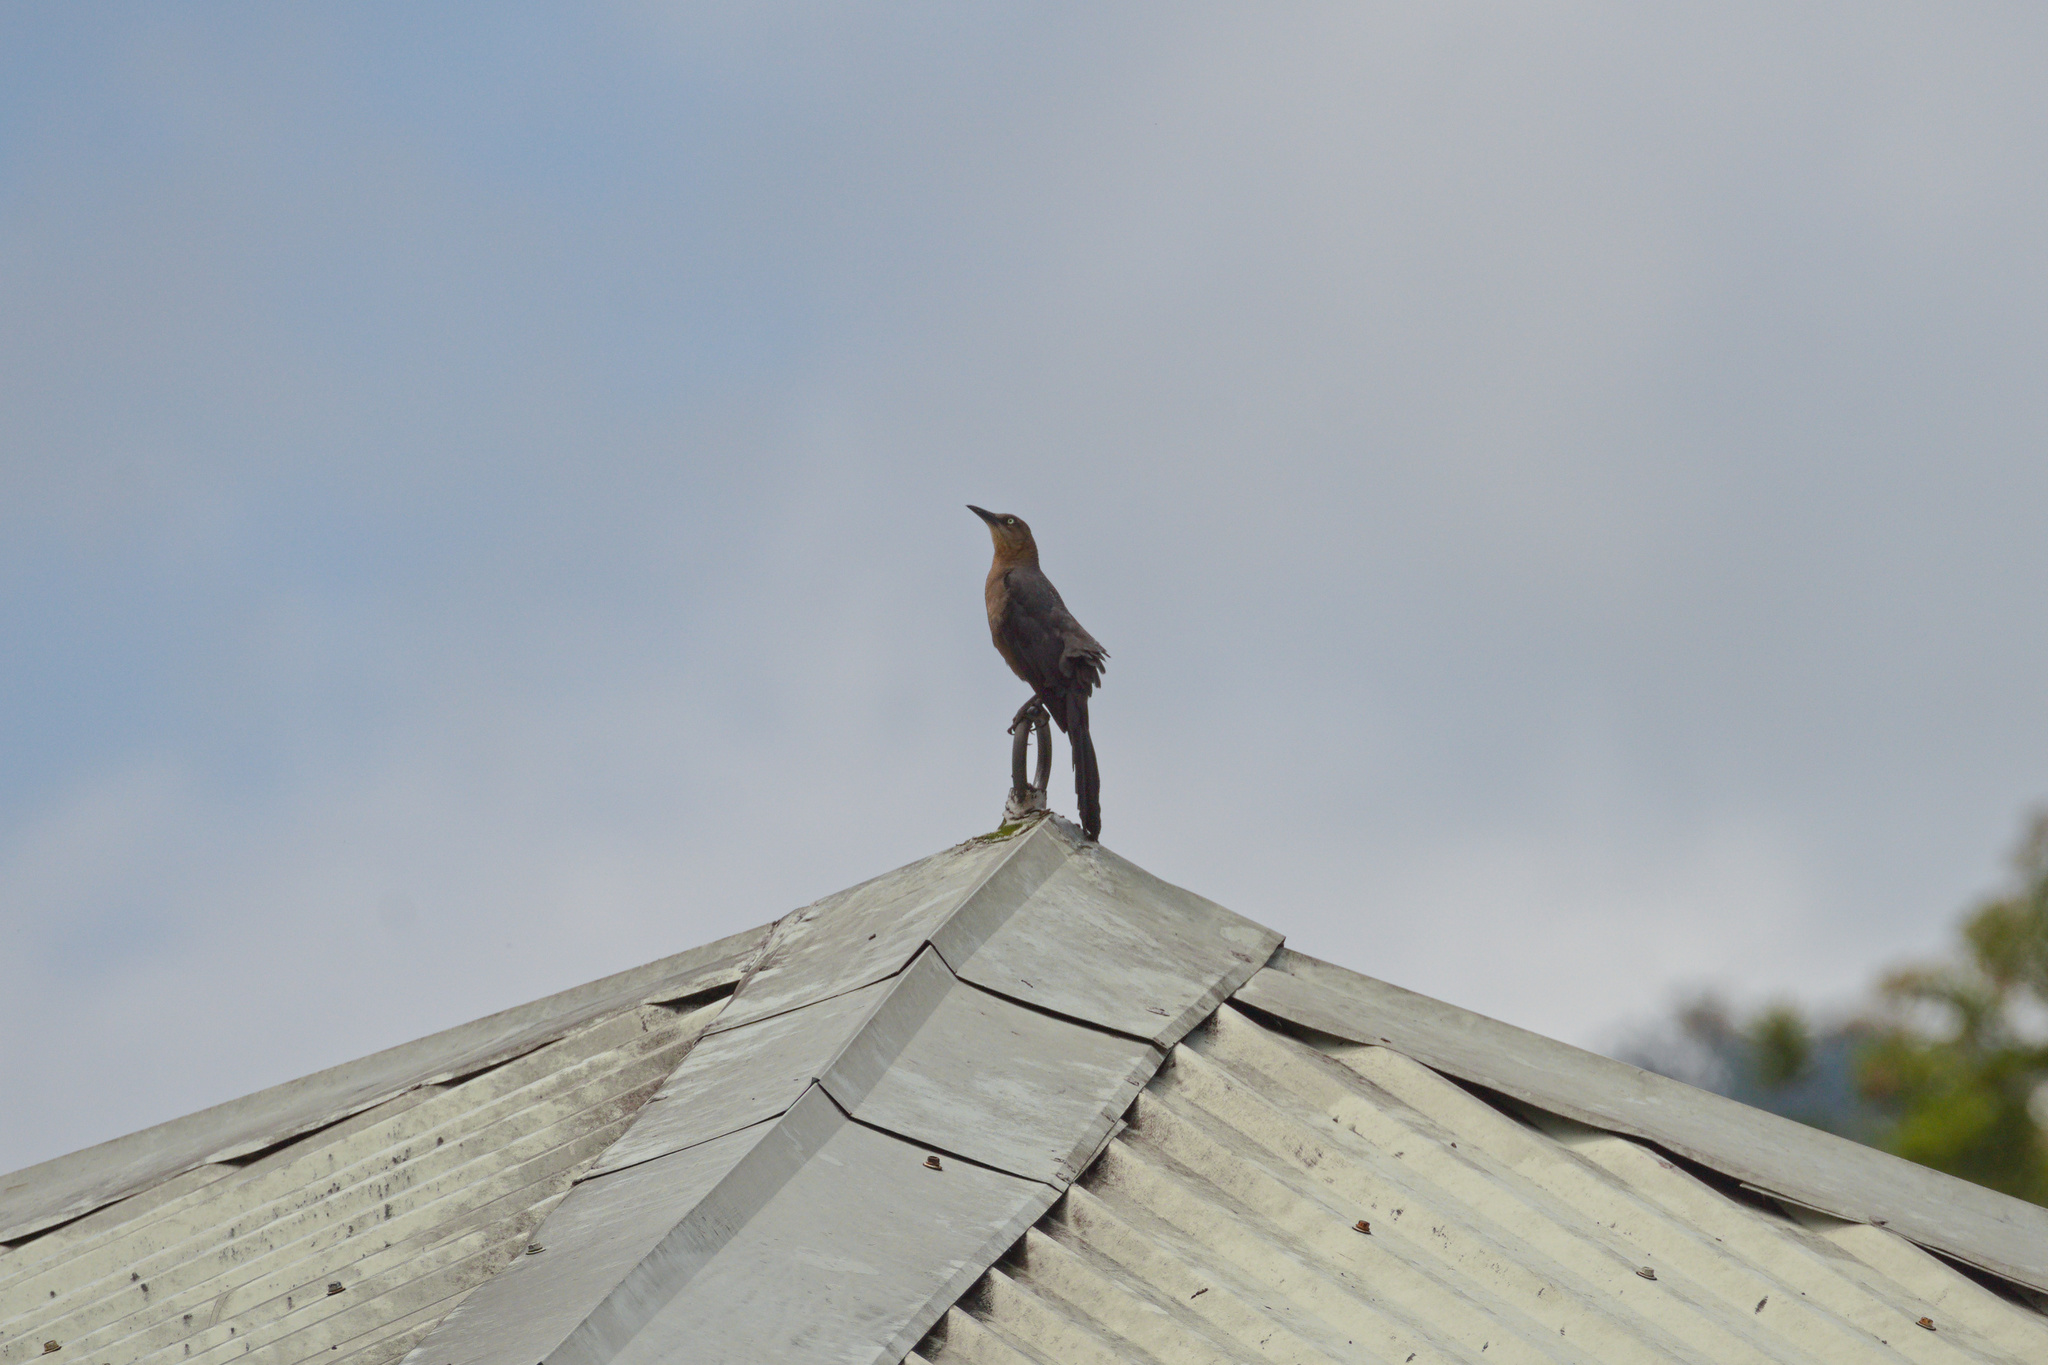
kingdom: Animalia
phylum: Chordata
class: Aves
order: Passeriformes
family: Icteridae
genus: Quiscalus
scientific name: Quiscalus mexicanus
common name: Great-tailed grackle
